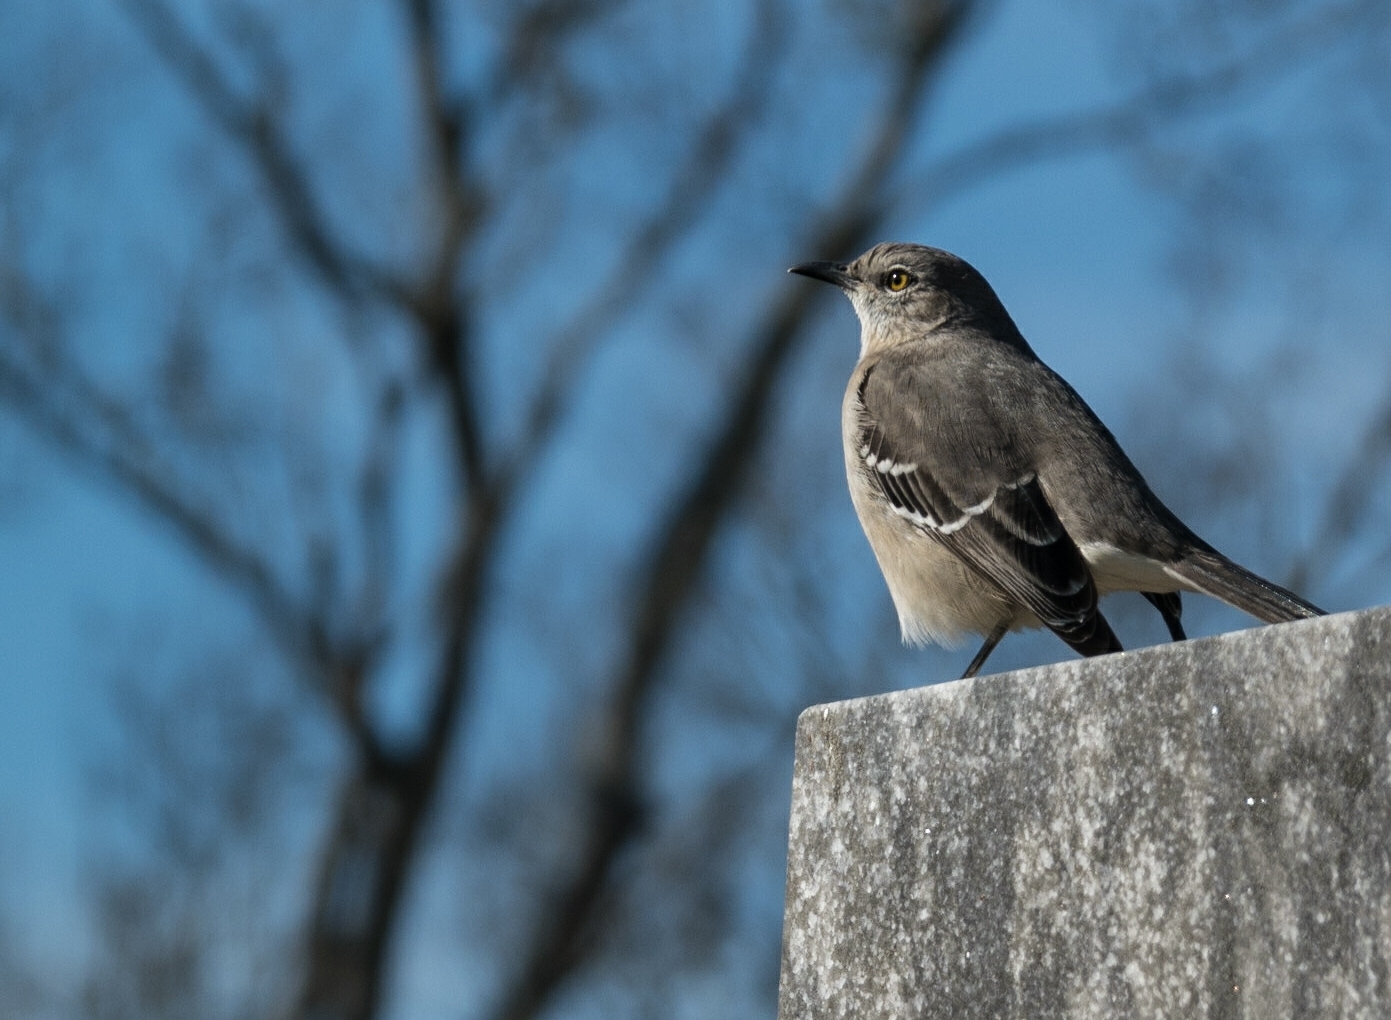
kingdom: Animalia
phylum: Chordata
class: Aves
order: Passeriformes
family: Mimidae
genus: Mimus
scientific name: Mimus polyglottos
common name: Northern mockingbird
